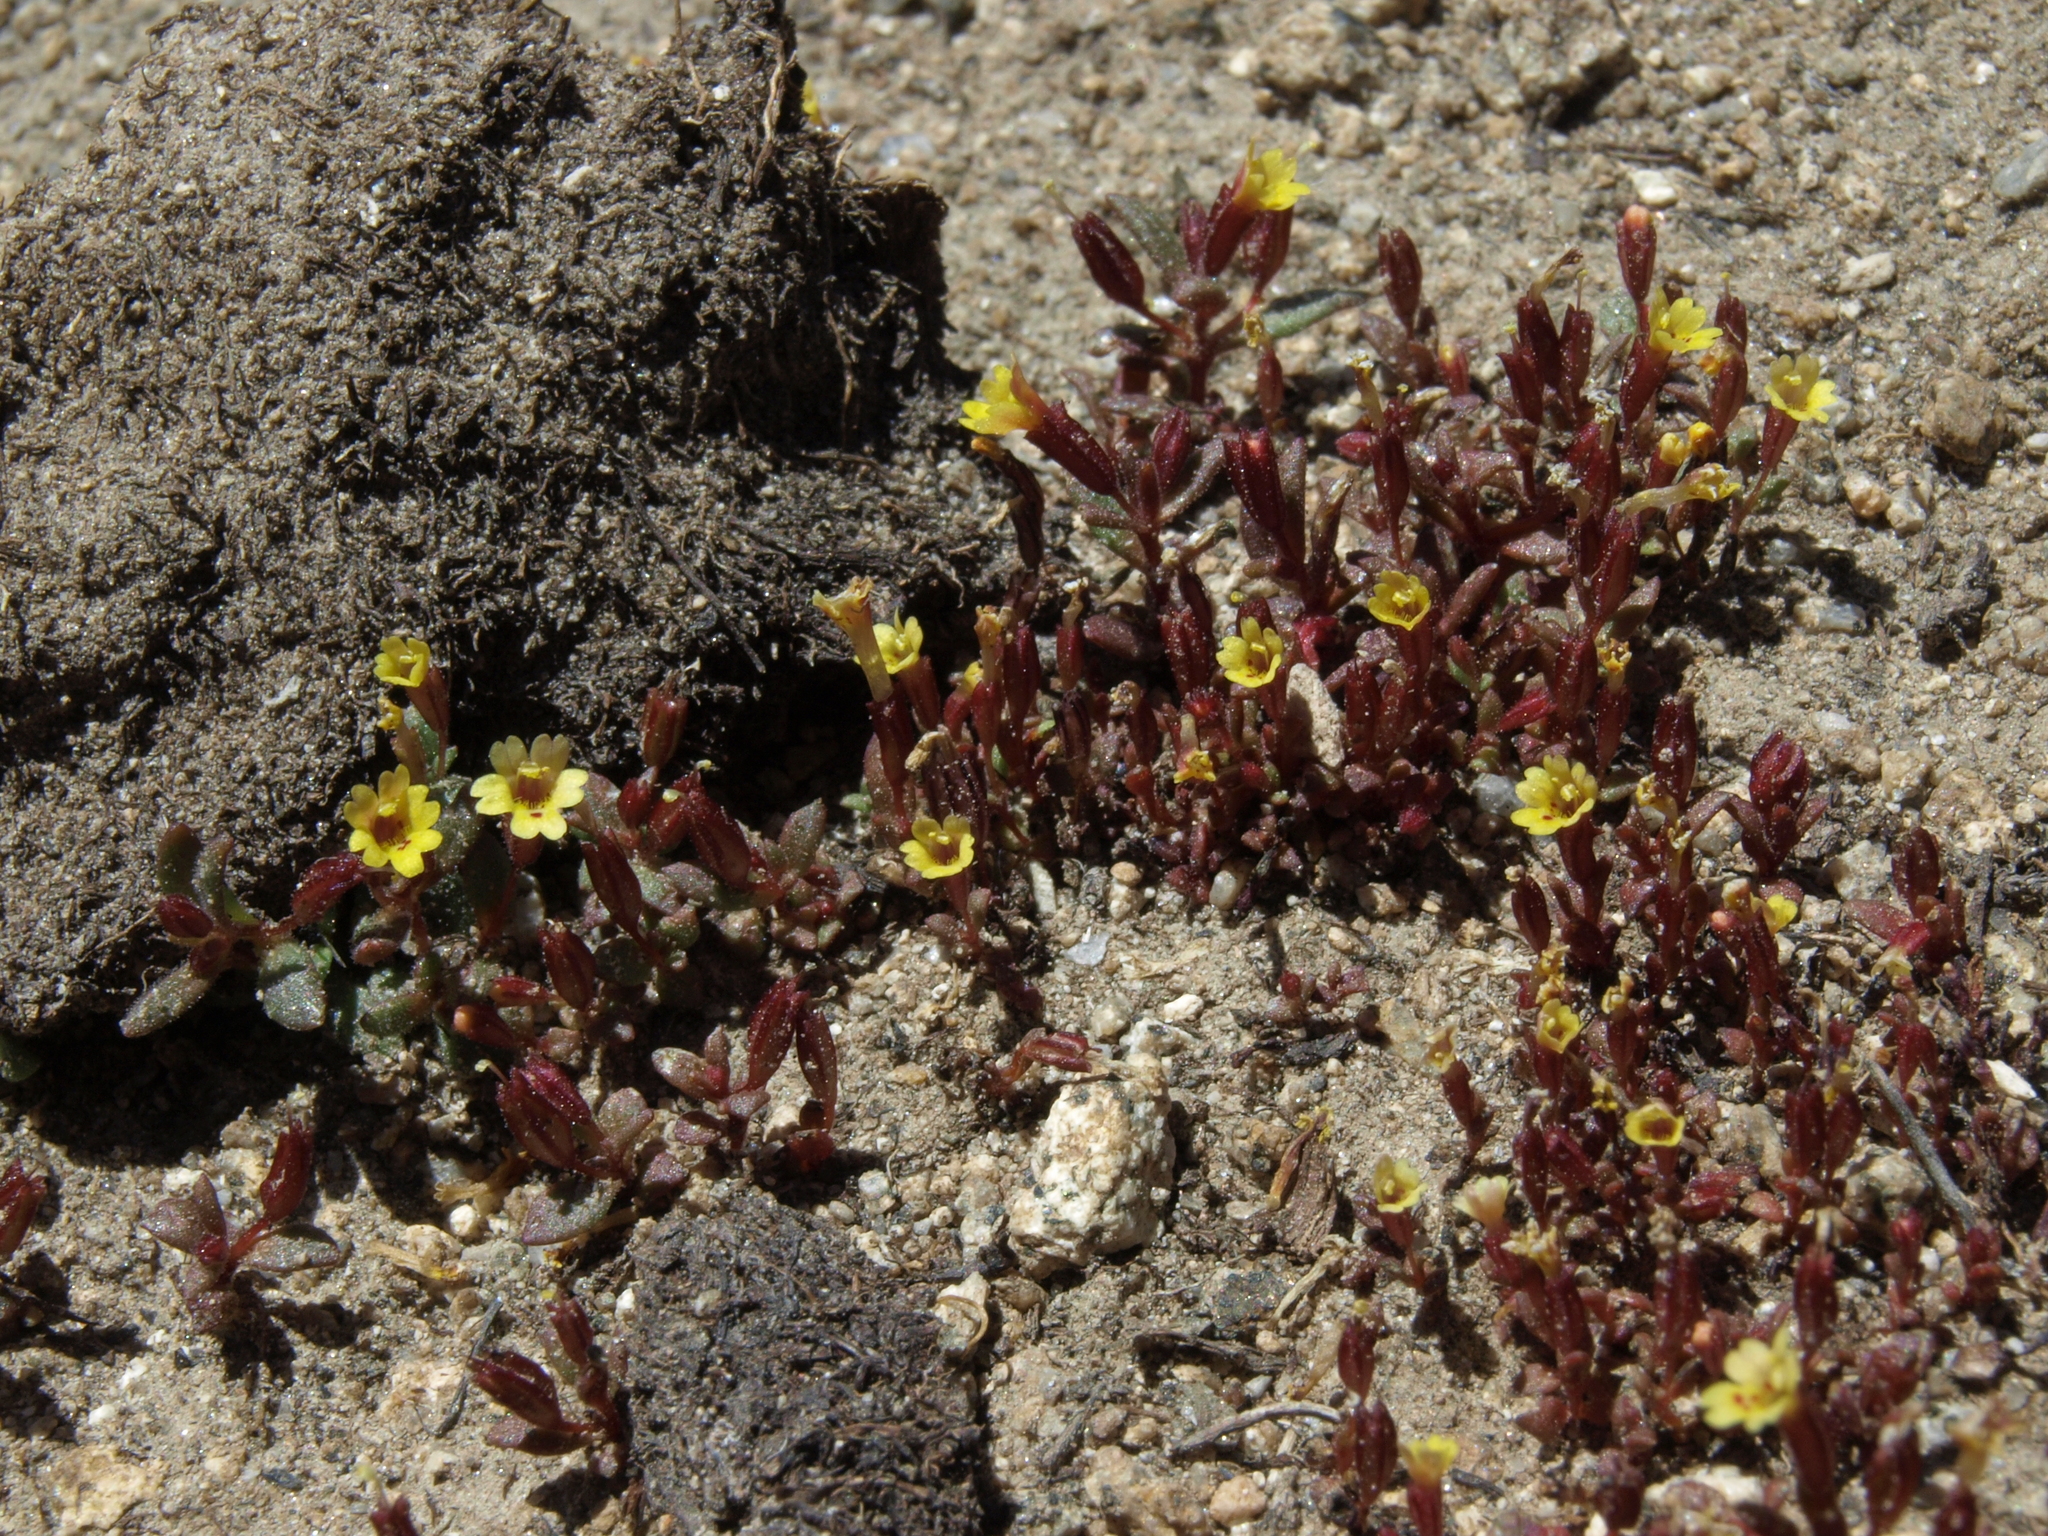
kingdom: Plantae
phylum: Tracheophyta
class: Magnoliopsida
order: Lamiales
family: Phrymaceae
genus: Erythranthe
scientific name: Erythranthe suksdorfii
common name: Suksdorf's monkeyflower
